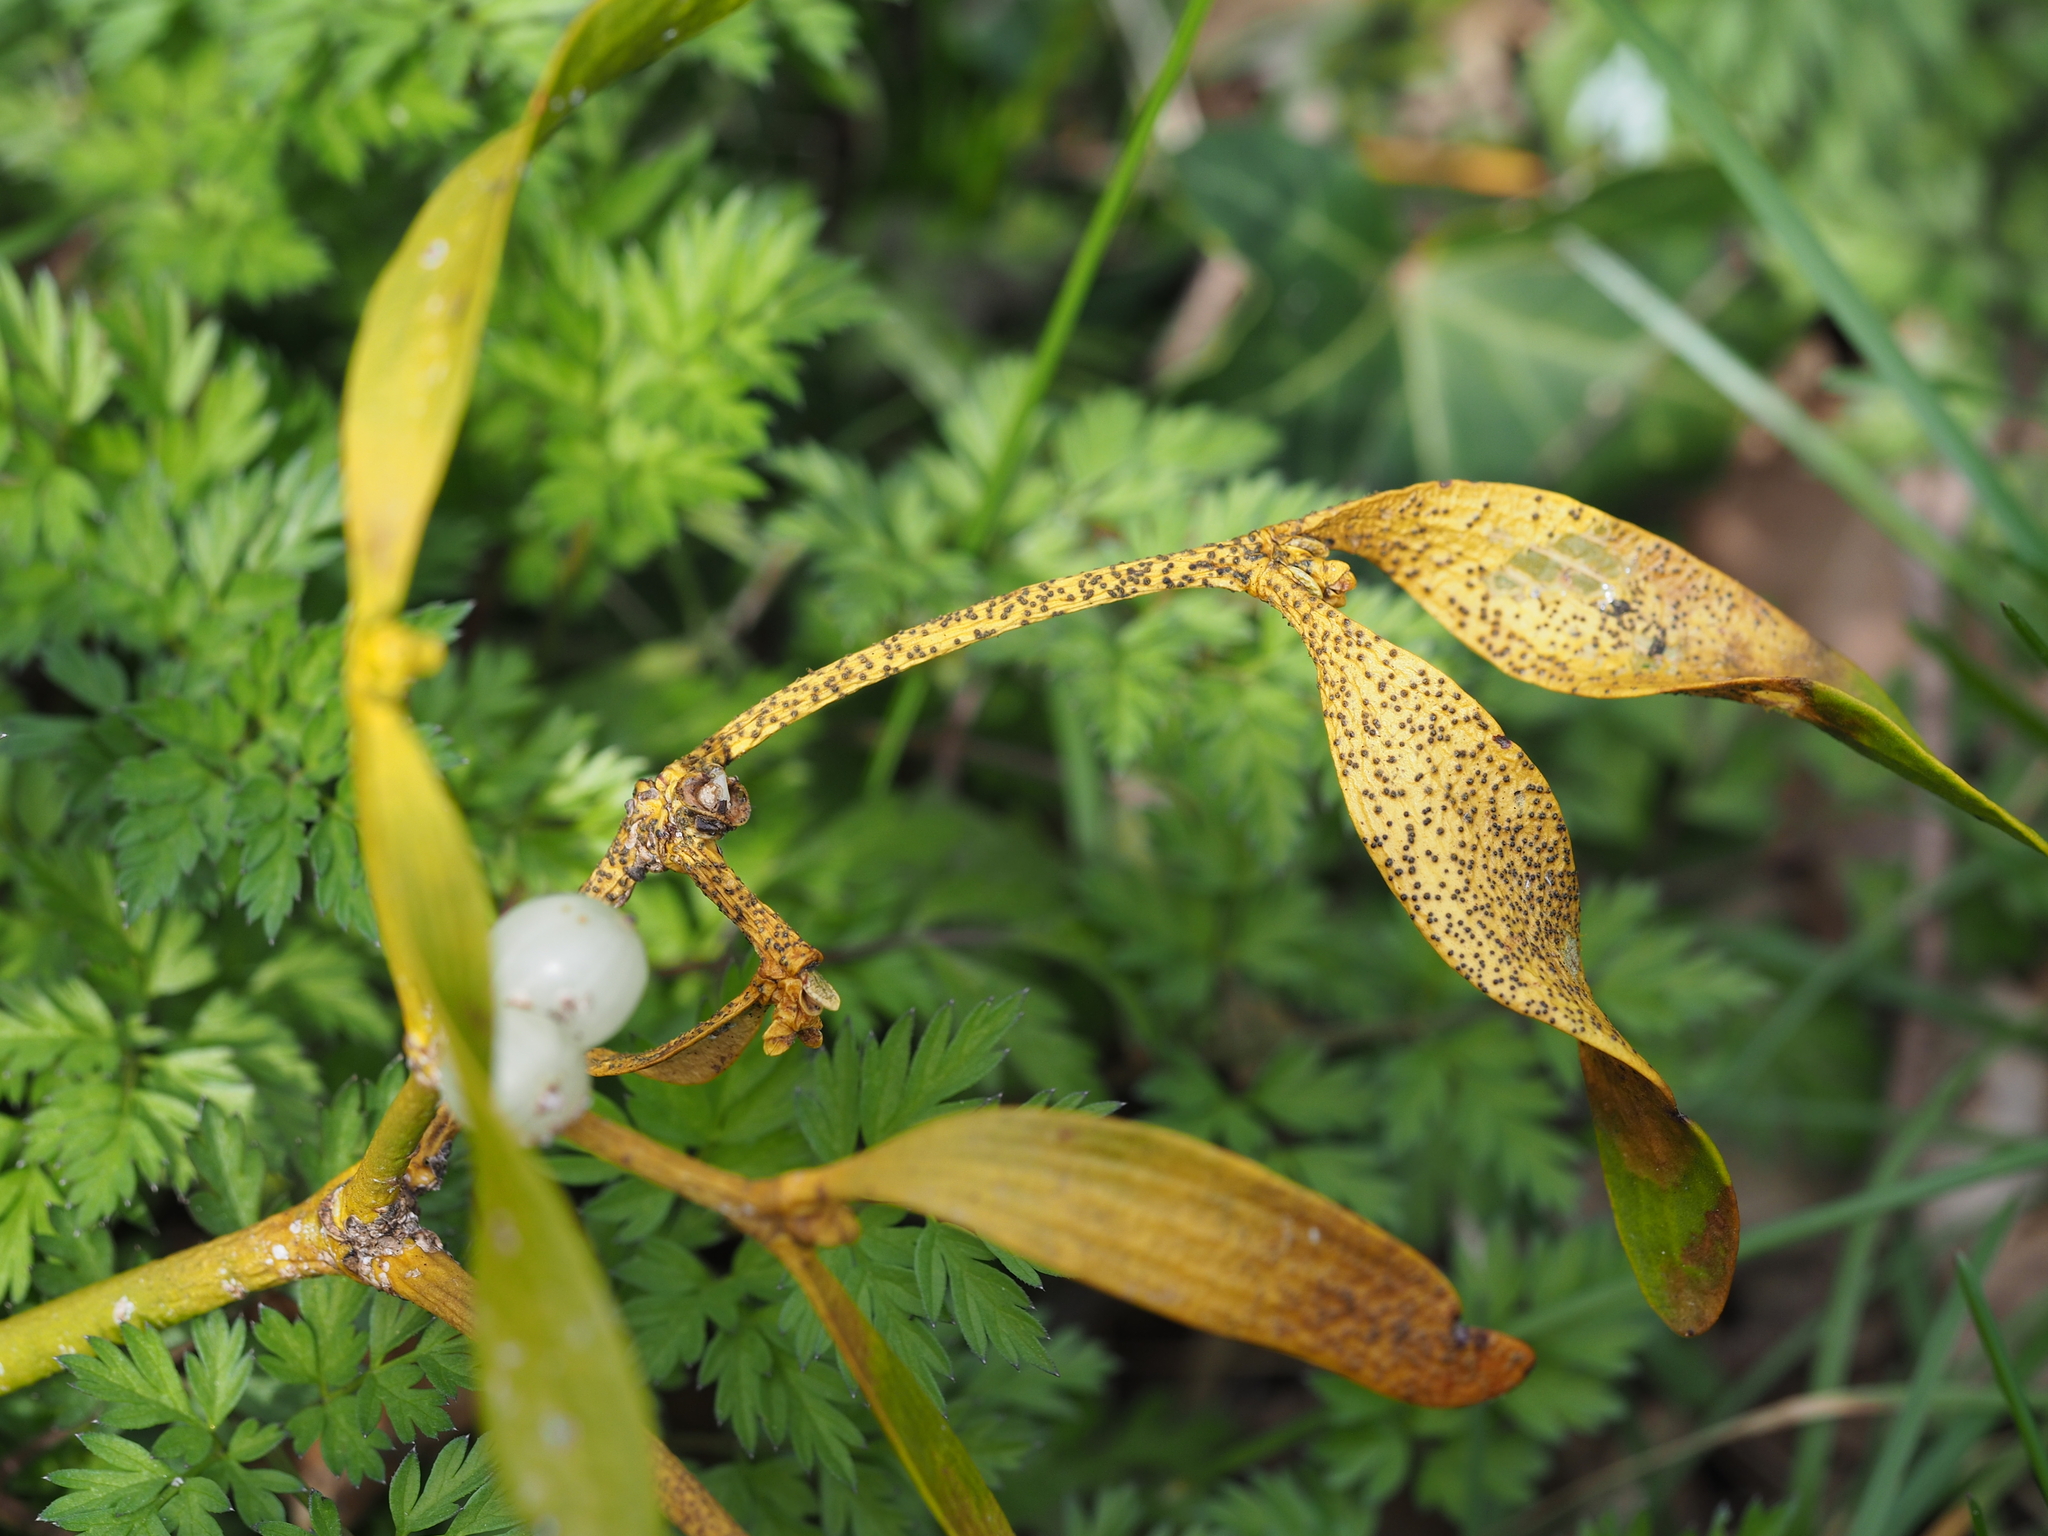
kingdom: Fungi
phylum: Ascomycota
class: Dothideomycetes
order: Botryosphaeriales
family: Botryosphaeriaceae
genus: Botryosphaeria
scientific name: Botryosphaeria visci
